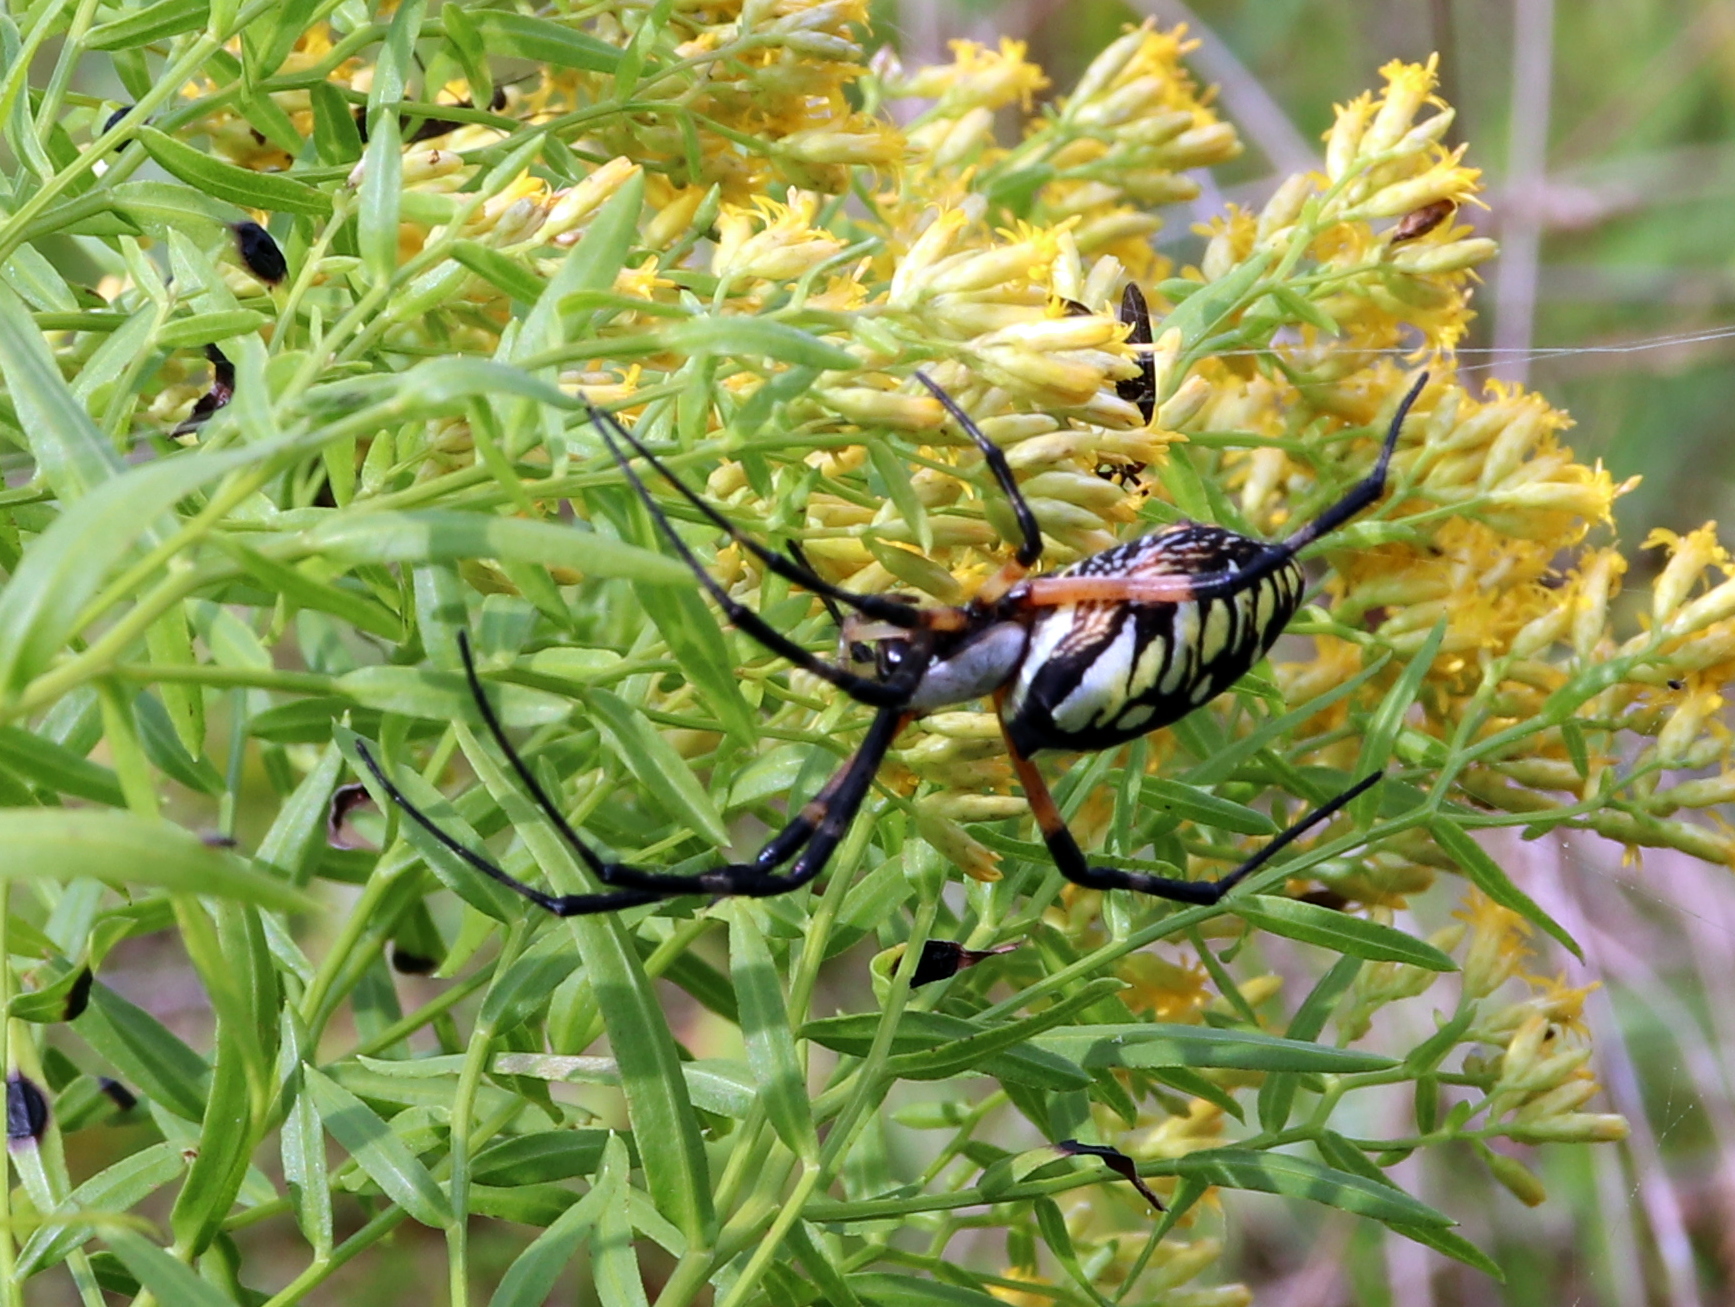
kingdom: Animalia
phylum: Arthropoda
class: Arachnida
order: Araneae
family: Araneidae
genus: Argiope
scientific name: Argiope aurantia
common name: Orb weavers
